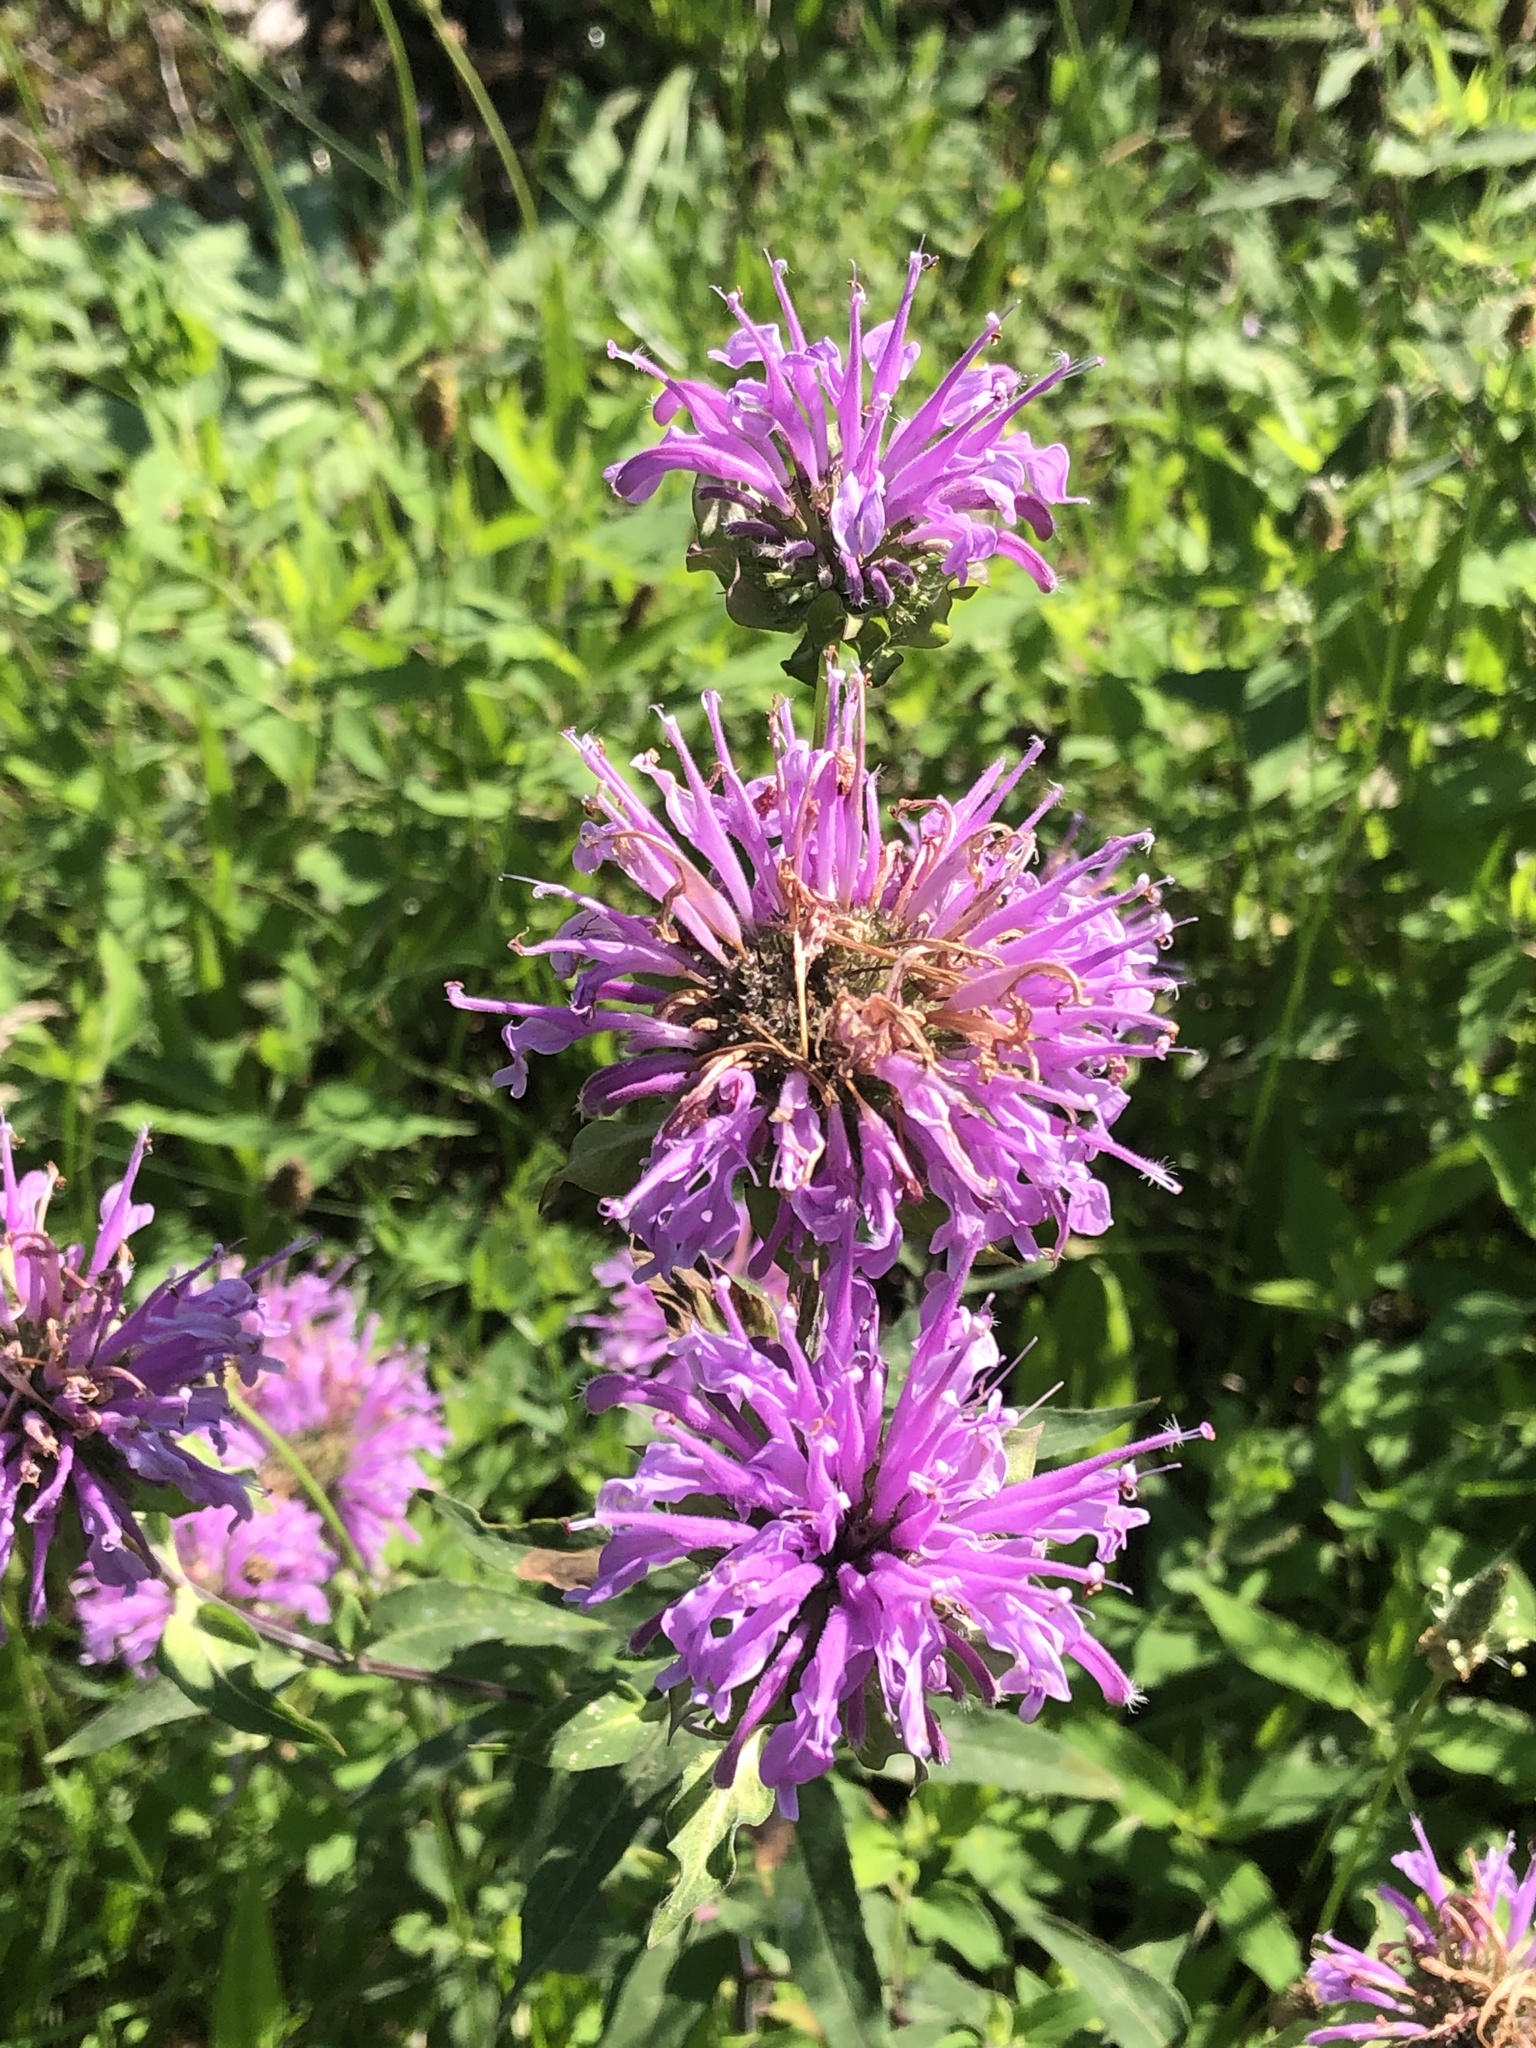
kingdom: Plantae
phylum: Tracheophyta
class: Magnoliopsida
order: Lamiales
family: Lamiaceae
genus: Monarda
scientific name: Monarda fistulosa
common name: Purple beebalm
